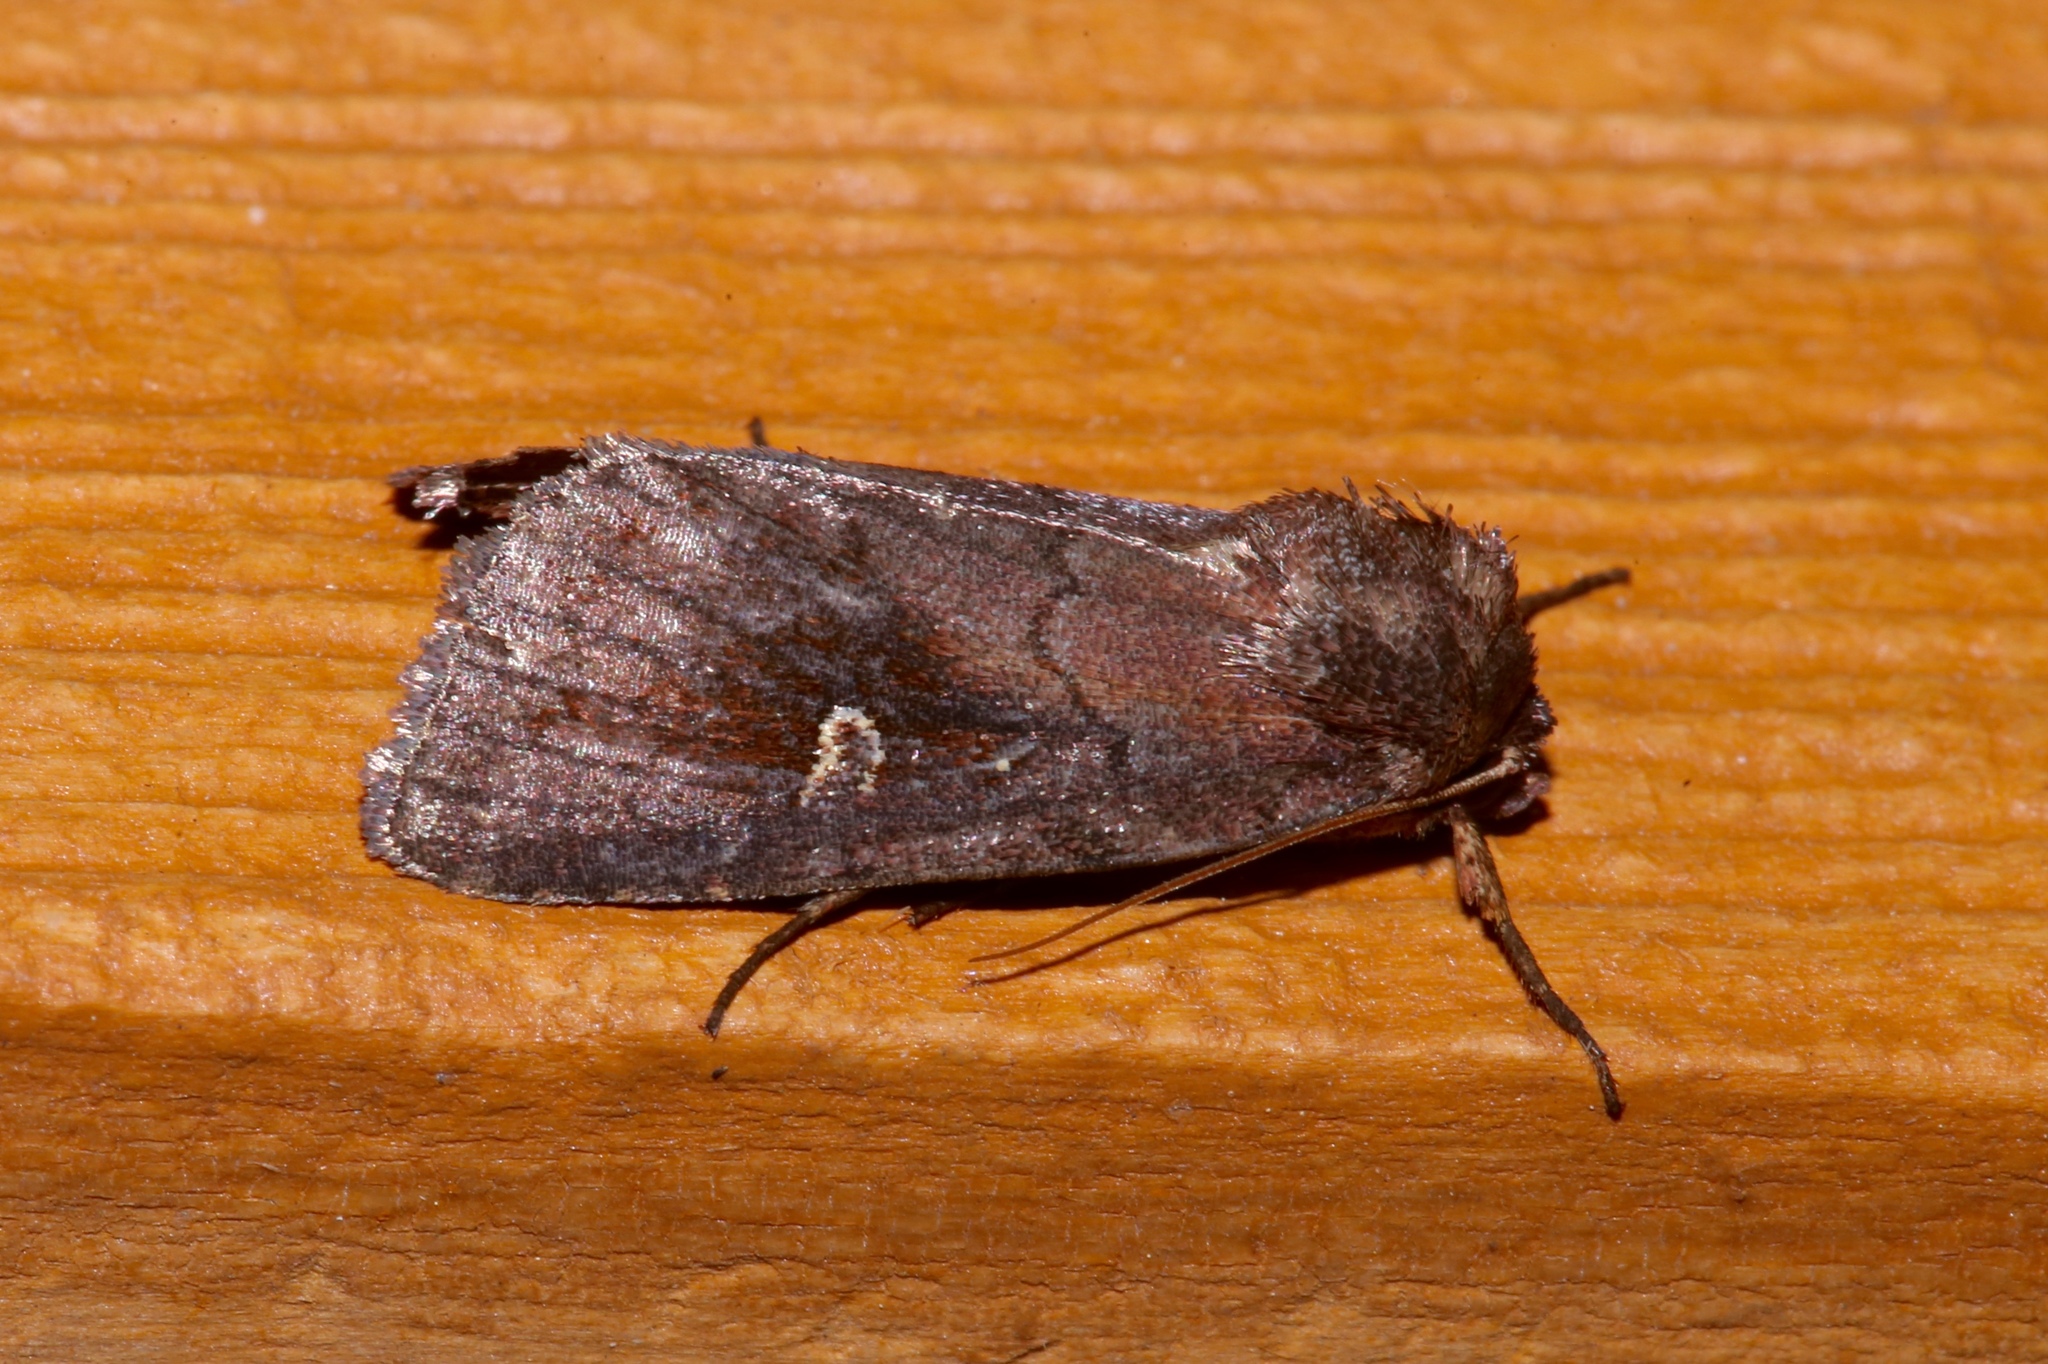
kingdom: Animalia
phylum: Arthropoda
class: Insecta
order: Lepidoptera
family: Noctuidae
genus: Iodopepla
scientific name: Iodopepla ualbum
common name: White-eyed borer moth
